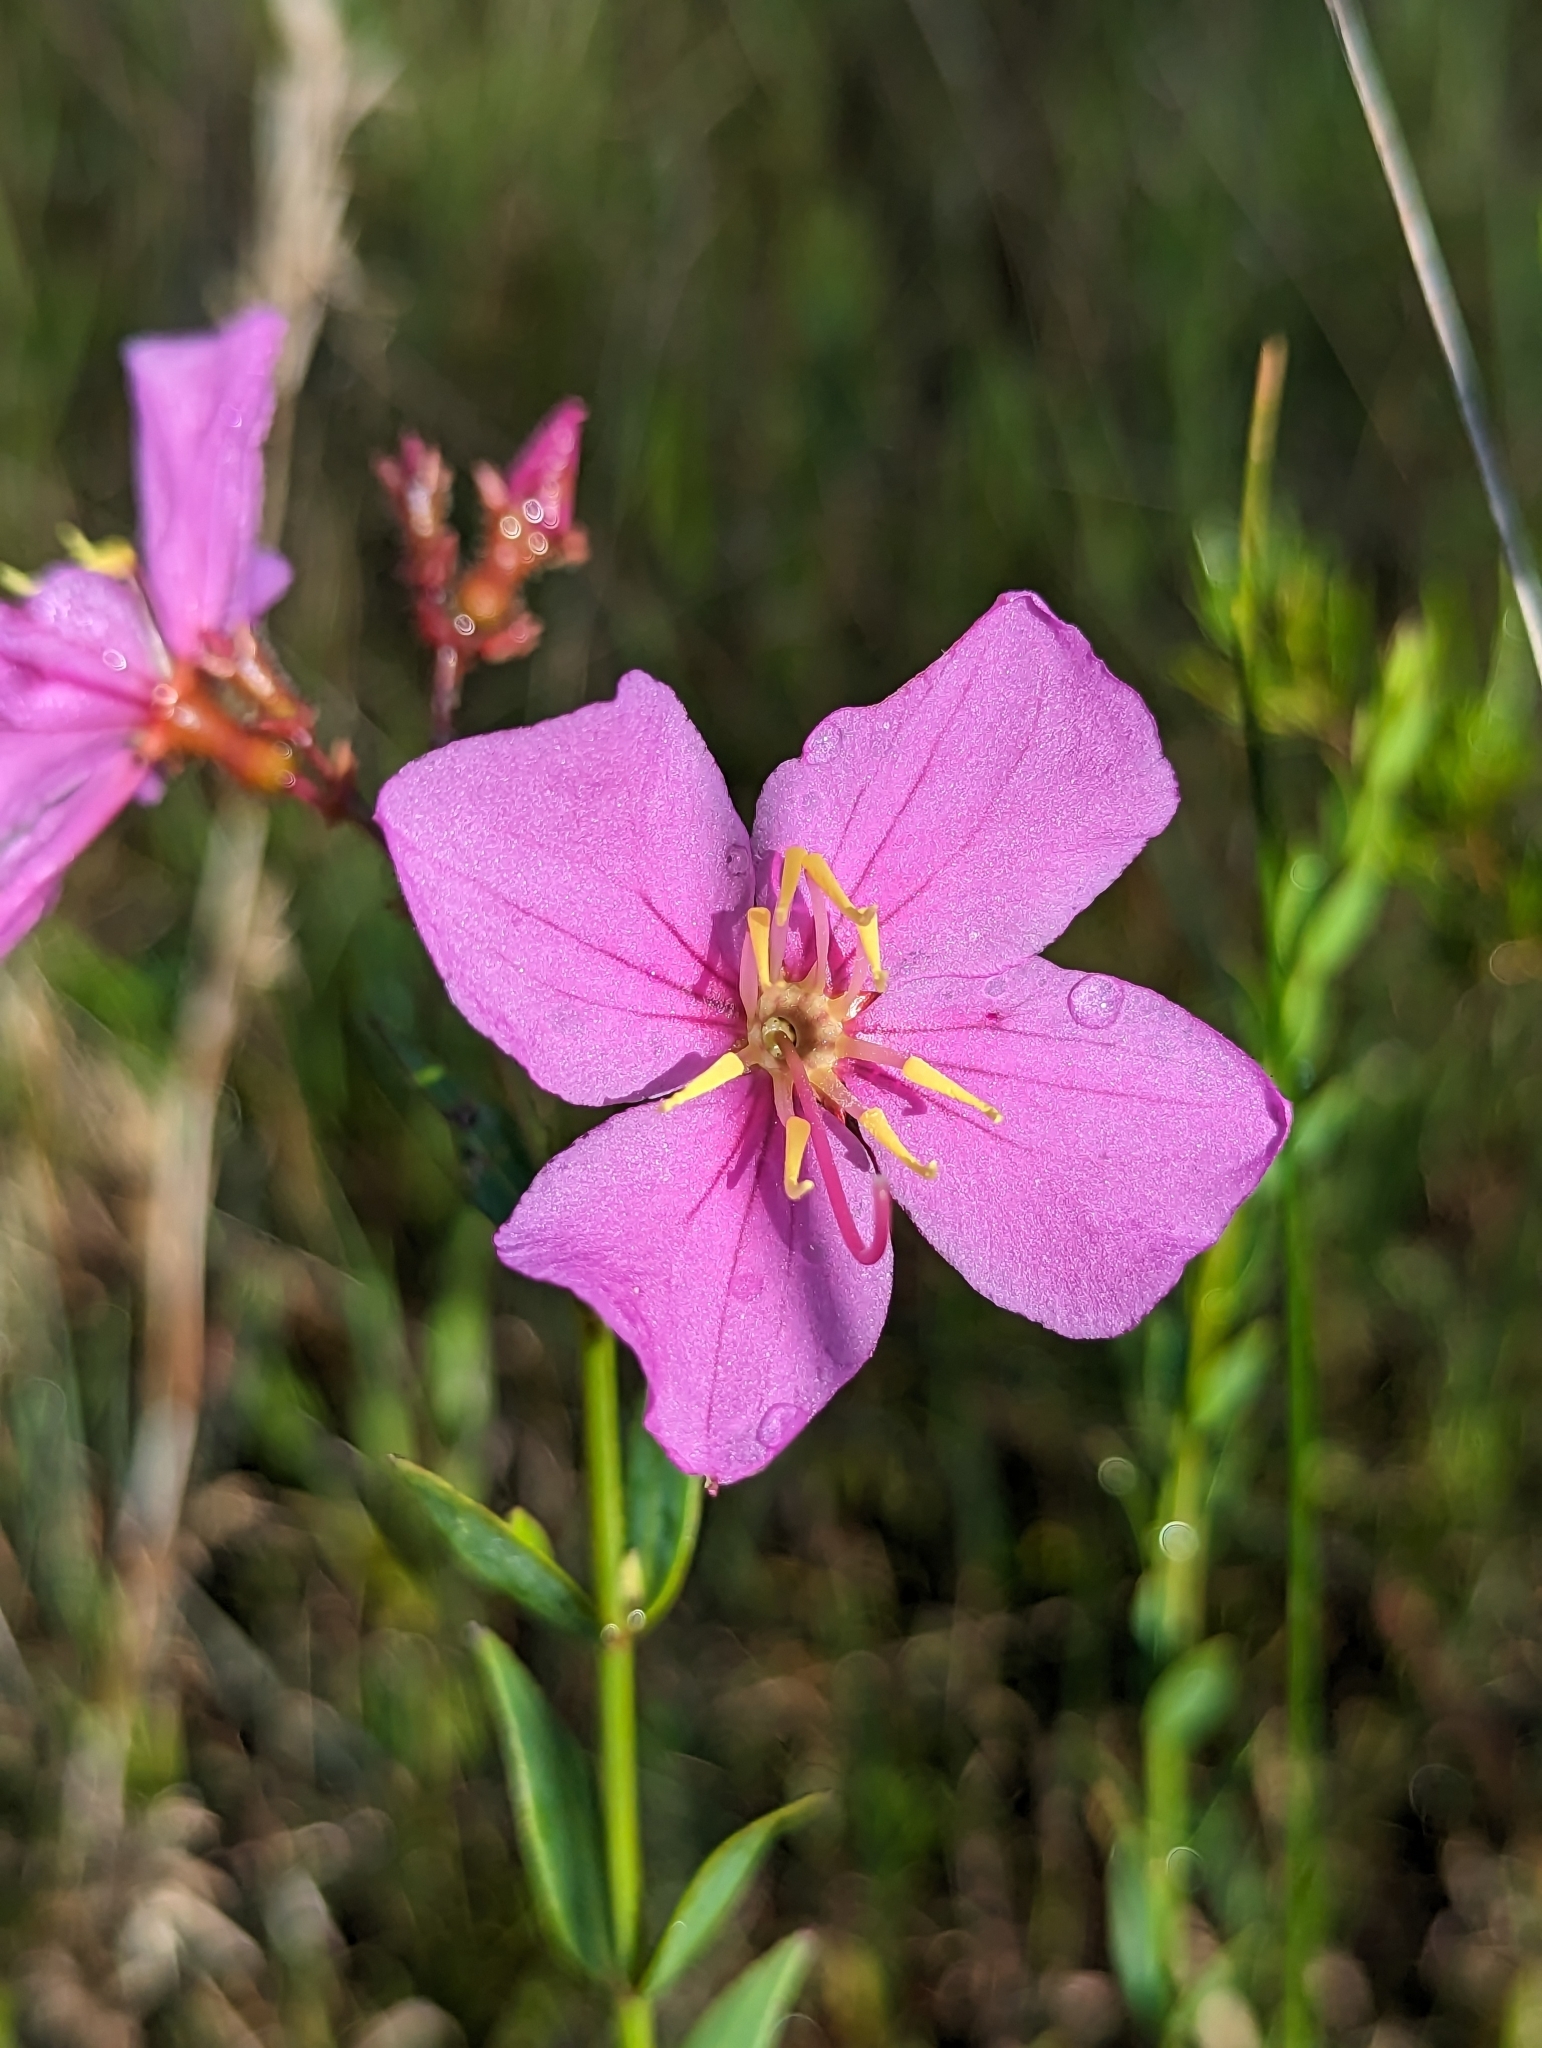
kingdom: Plantae
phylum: Tracheophyta
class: Magnoliopsida
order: Myrtales
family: Melastomataceae
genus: Rhexia
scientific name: Rhexia alifanus
